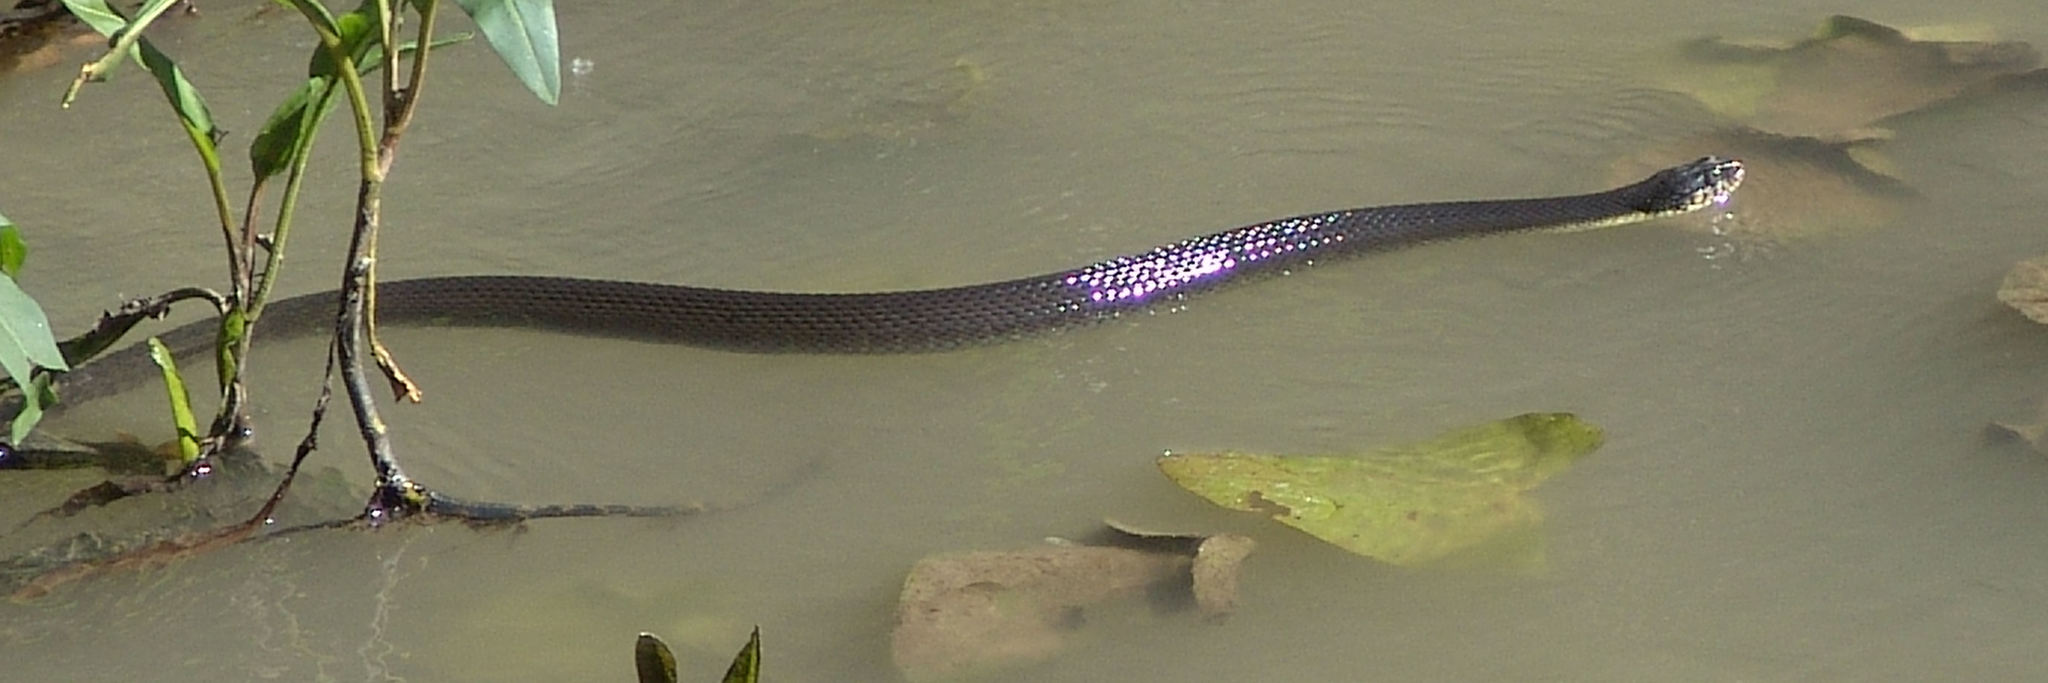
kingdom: Animalia
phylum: Chordata
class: Squamata
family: Colubridae
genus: Nerodia
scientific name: Nerodia erythrogaster
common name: Plainbelly water snake
